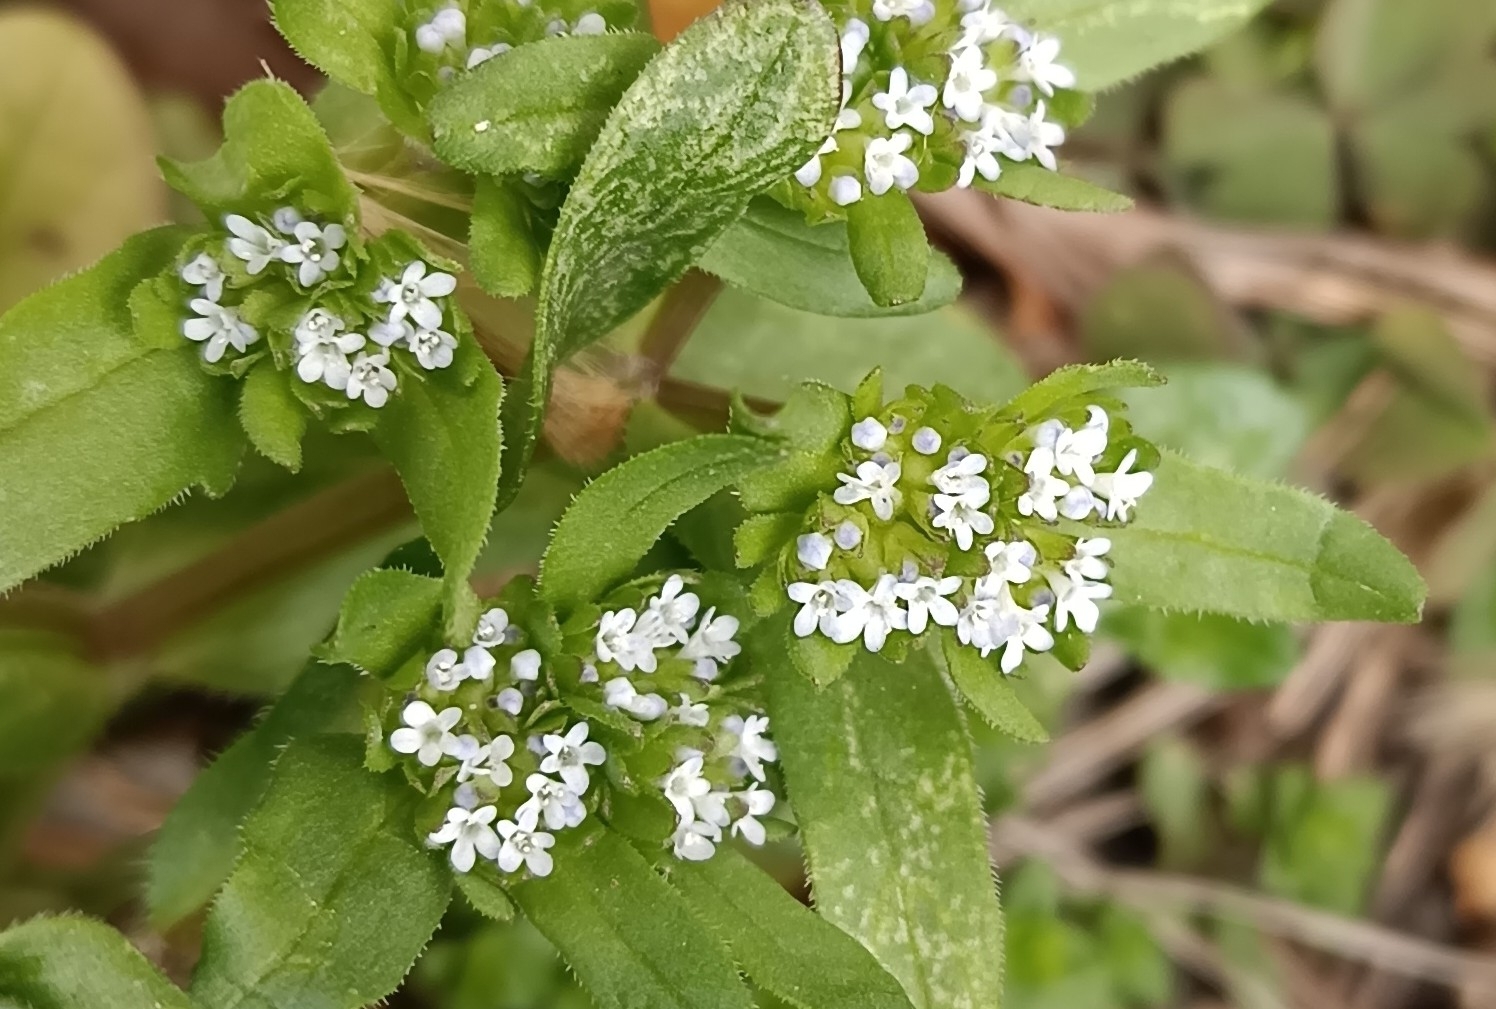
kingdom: Plantae
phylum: Tracheophyta
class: Magnoliopsida
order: Dipsacales
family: Caprifoliaceae
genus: Valerianella
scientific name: Valerianella locusta
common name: Common cornsalad
